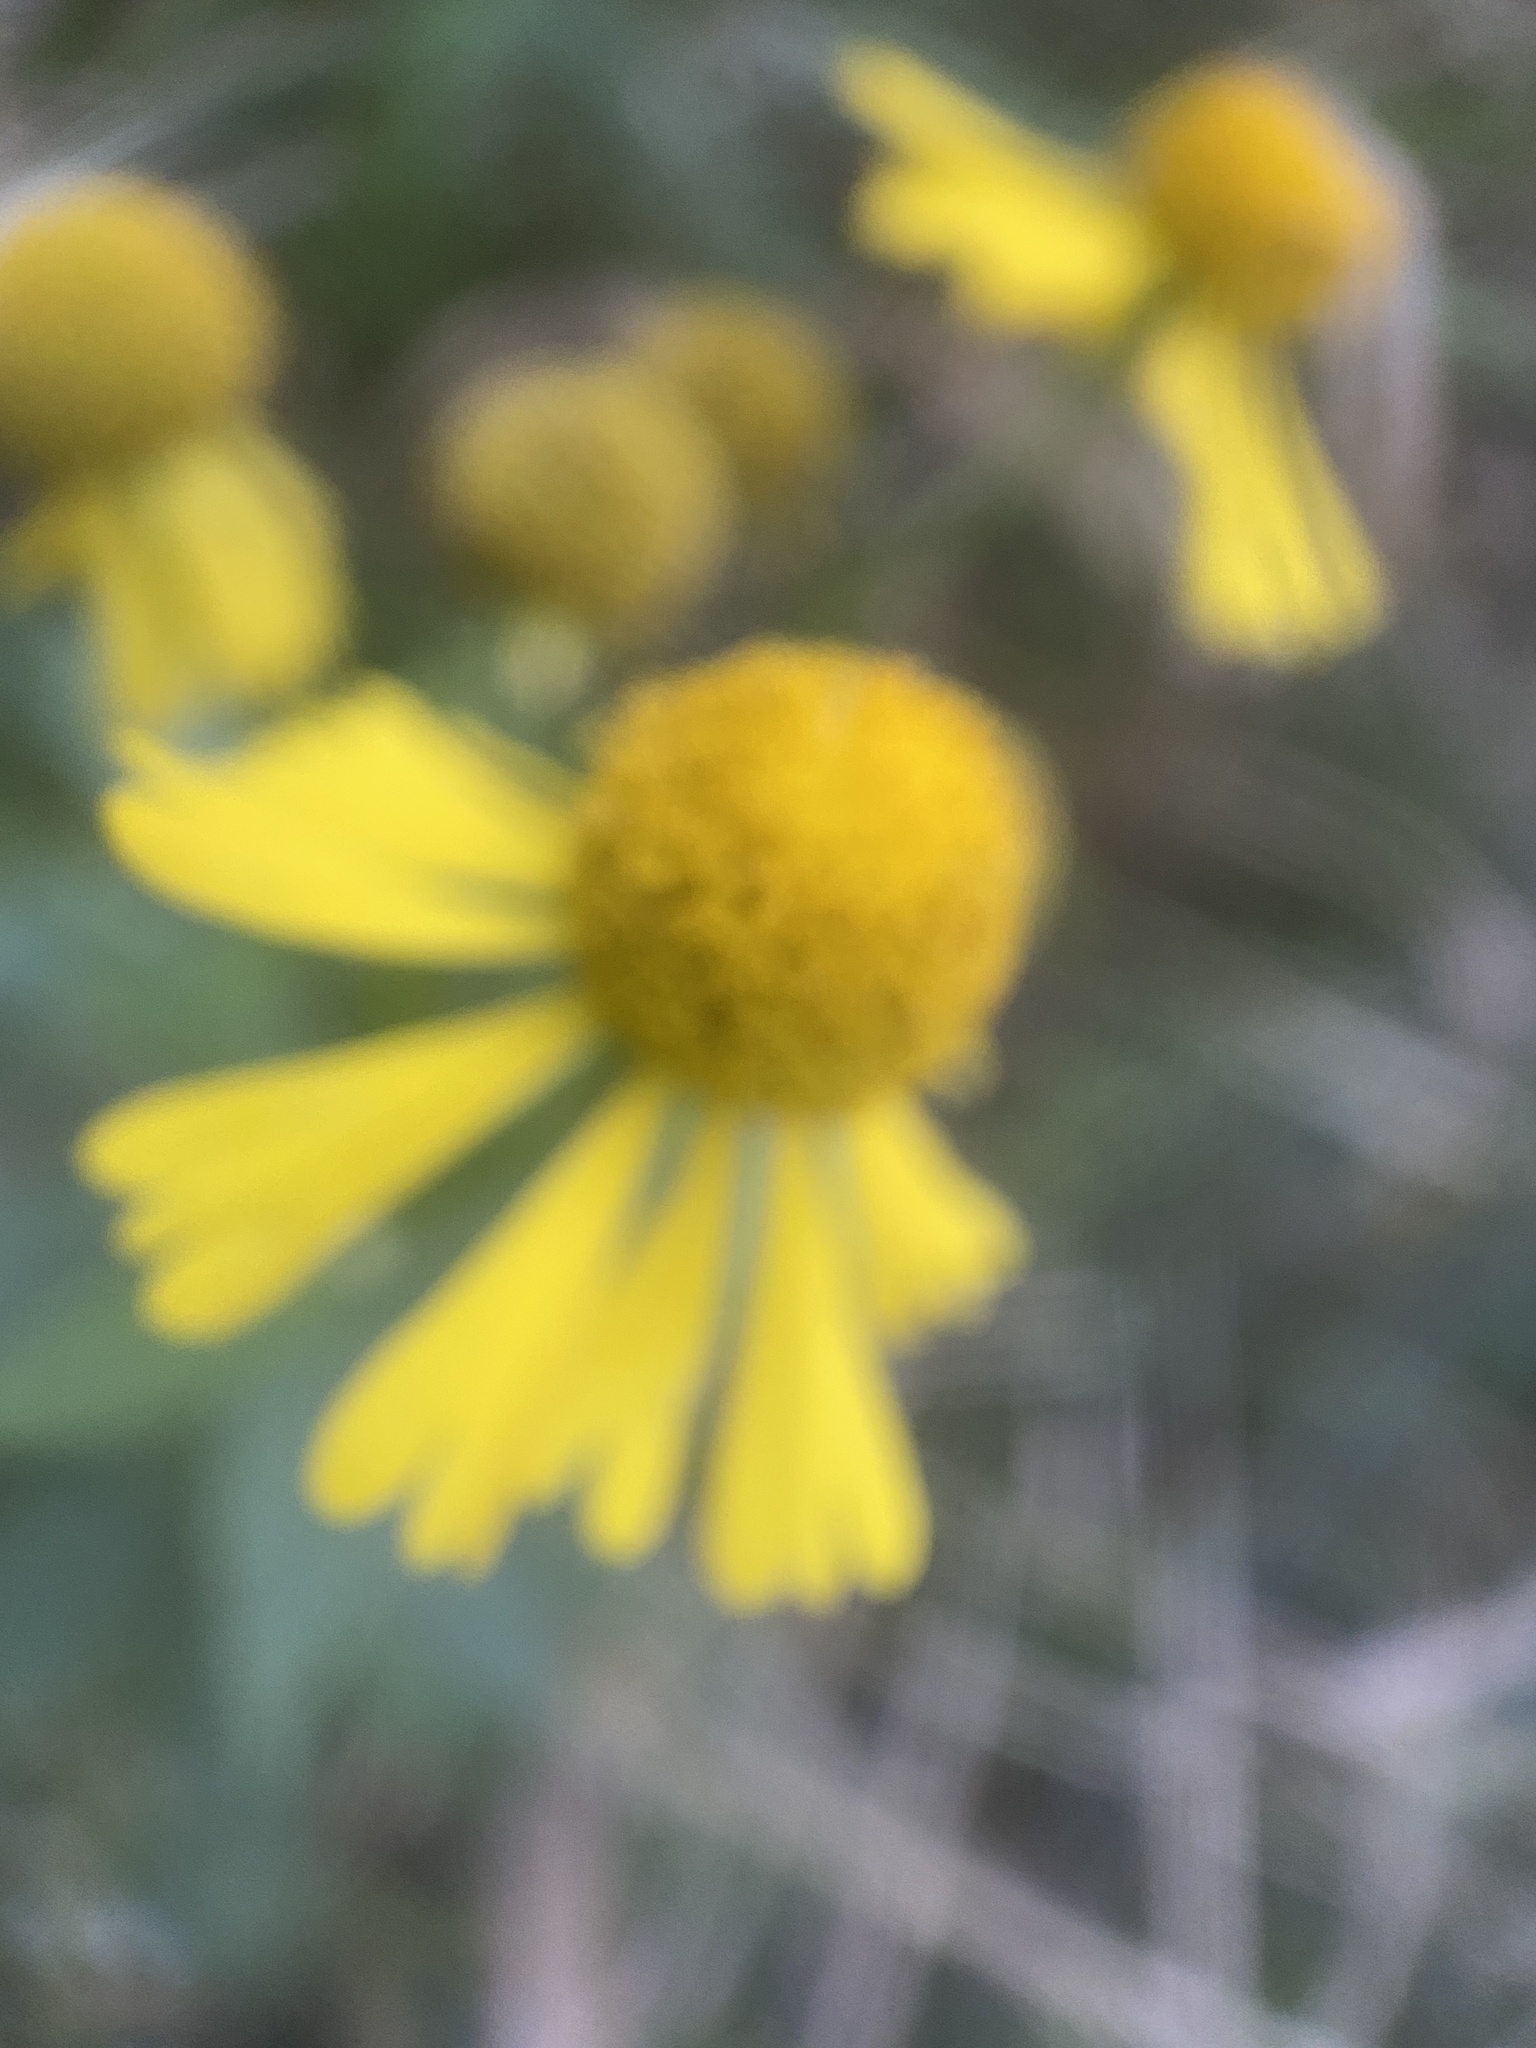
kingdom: Plantae
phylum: Tracheophyta
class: Magnoliopsida
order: Asterales
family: Asteraceae
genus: Helenium
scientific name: Helenium autumnale
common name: Sneezeweed
